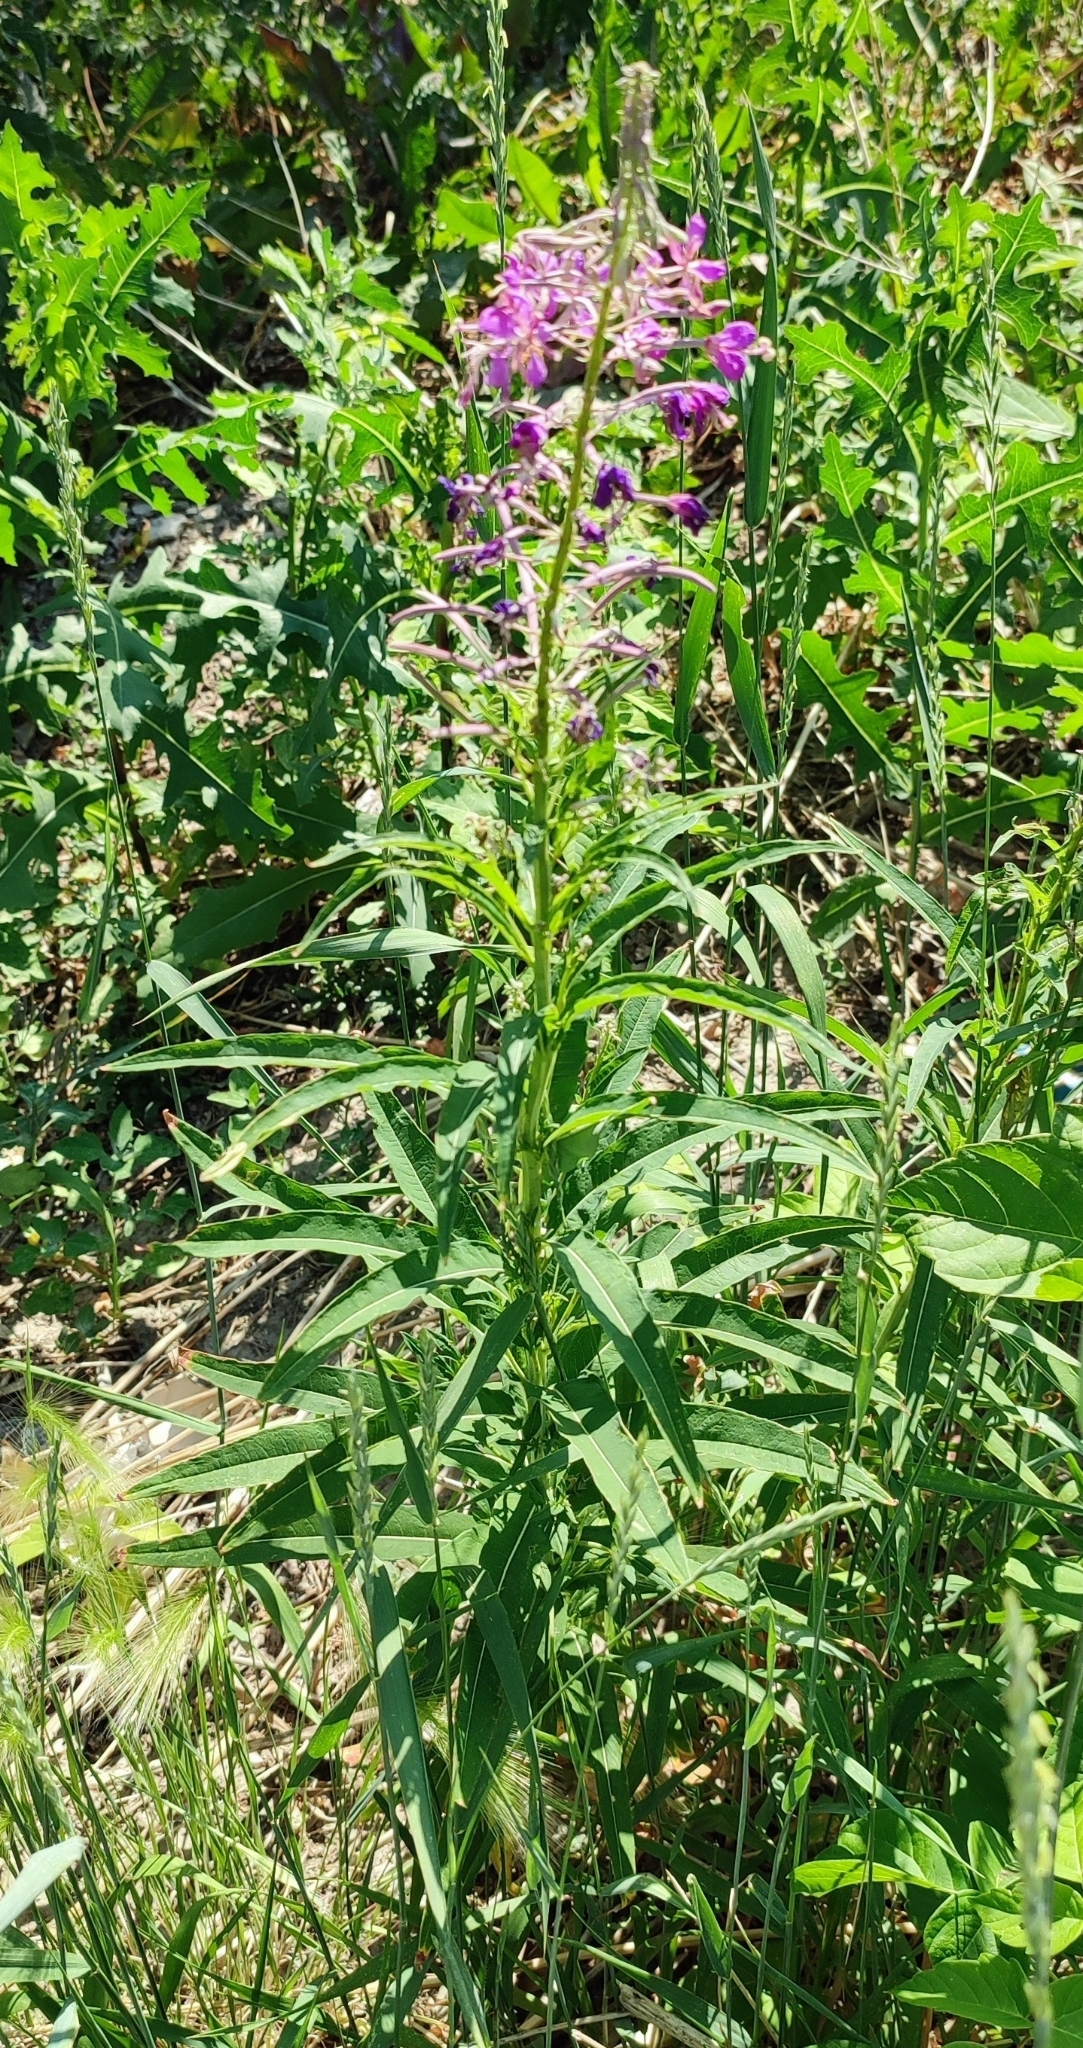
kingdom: Plantae
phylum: Tracheophyta
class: Magnoliopsida
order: Myrtales
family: Onagraceae
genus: Chamaenerion
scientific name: Chamaenerion angustifolium
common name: Fireweed
